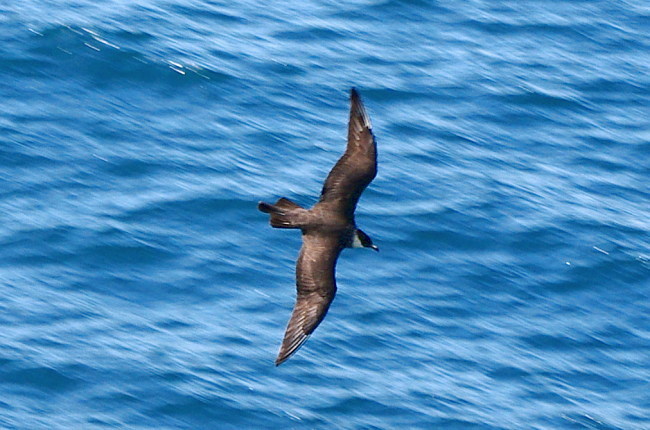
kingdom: Animalia
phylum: Chordata
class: Aves
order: Charadriiformes
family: Stercorariidae
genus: Stercorarius
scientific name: Stercorarius pomarinus
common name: Pomarine jaeger
